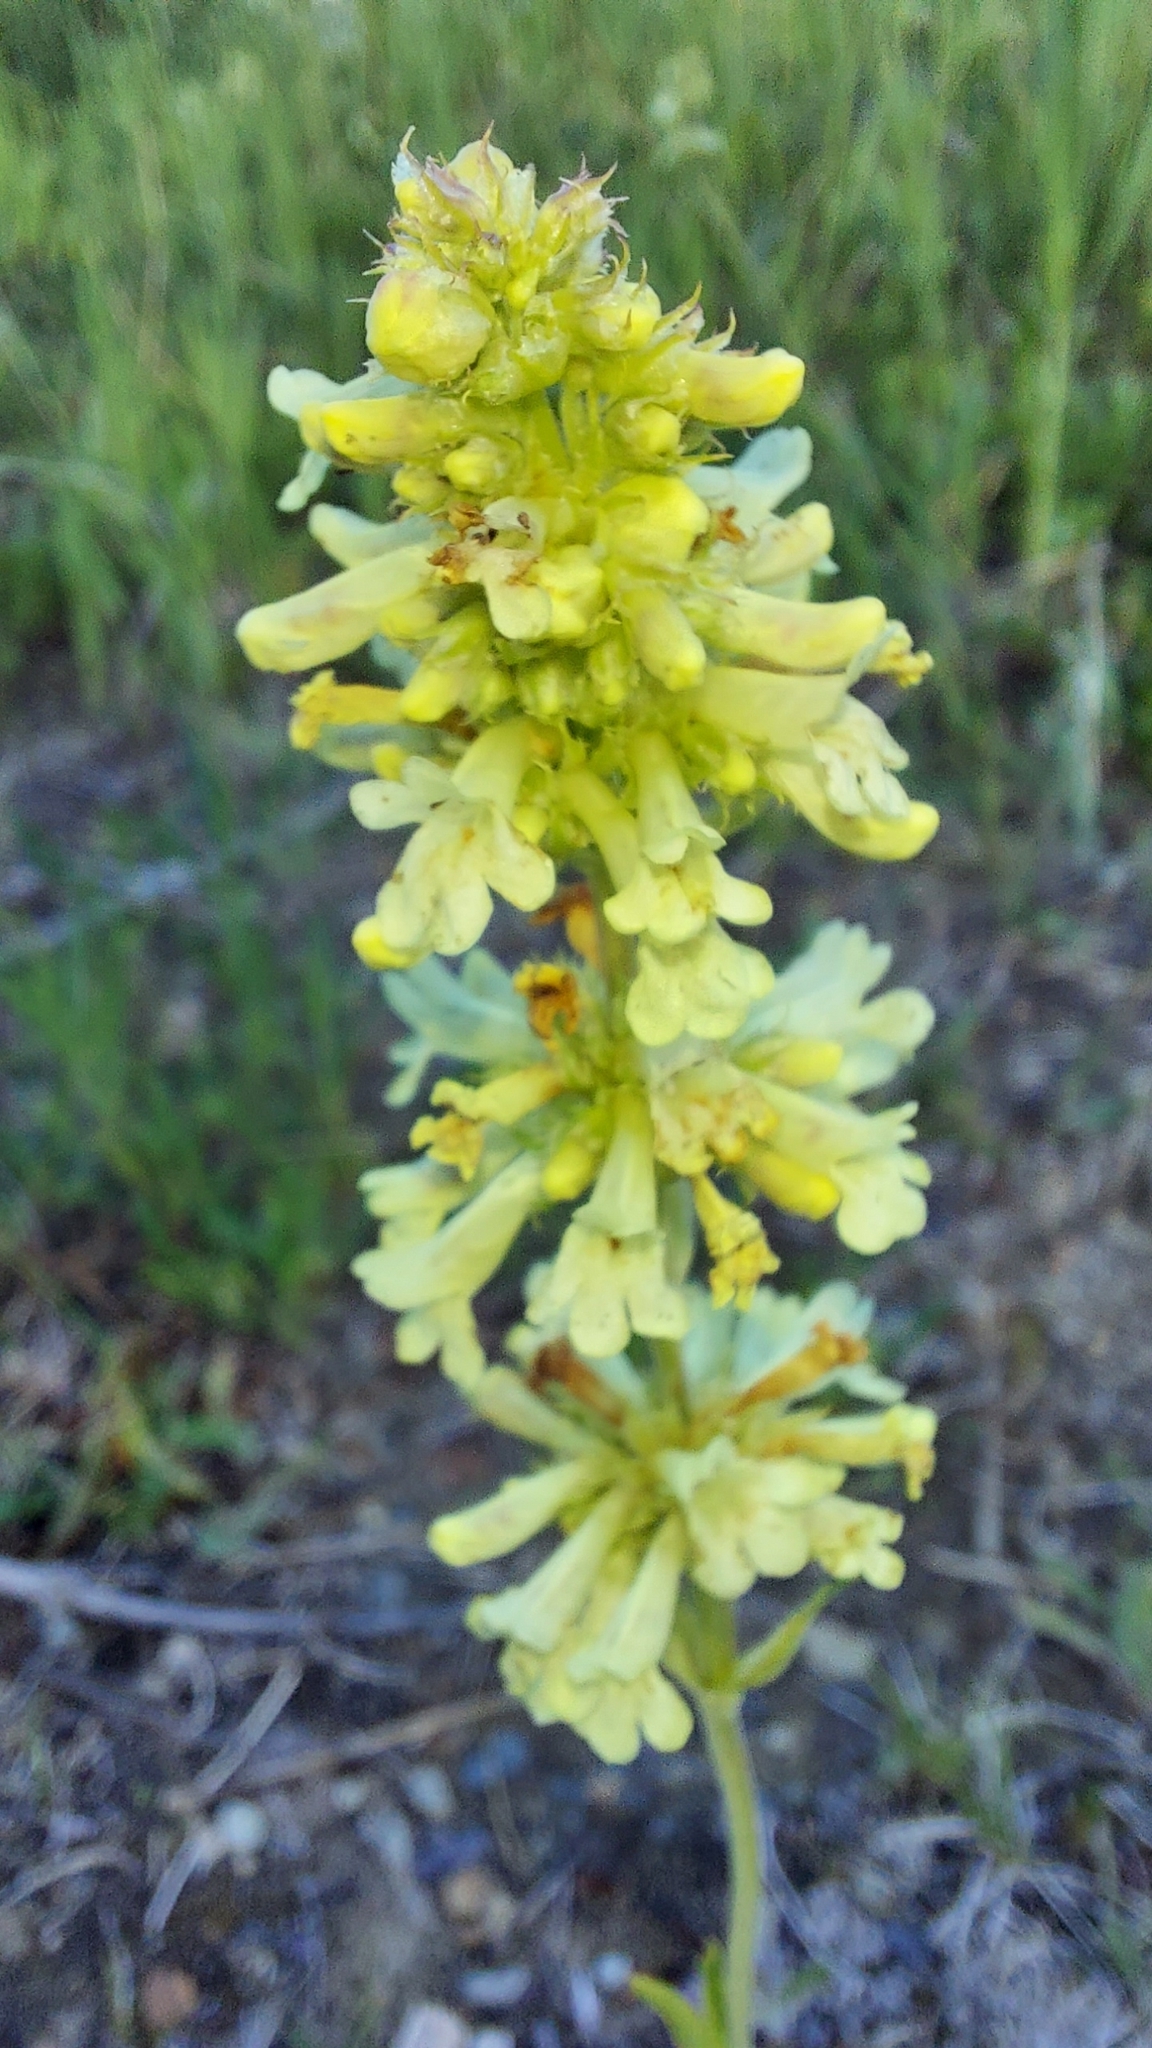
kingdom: Plantae
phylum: Tracheophyta
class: Magnoliopsida
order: Lamiales
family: Plantaginaceae
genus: Penstemon
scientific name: Penstemon confertus
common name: Lesser yellow beardtongue
